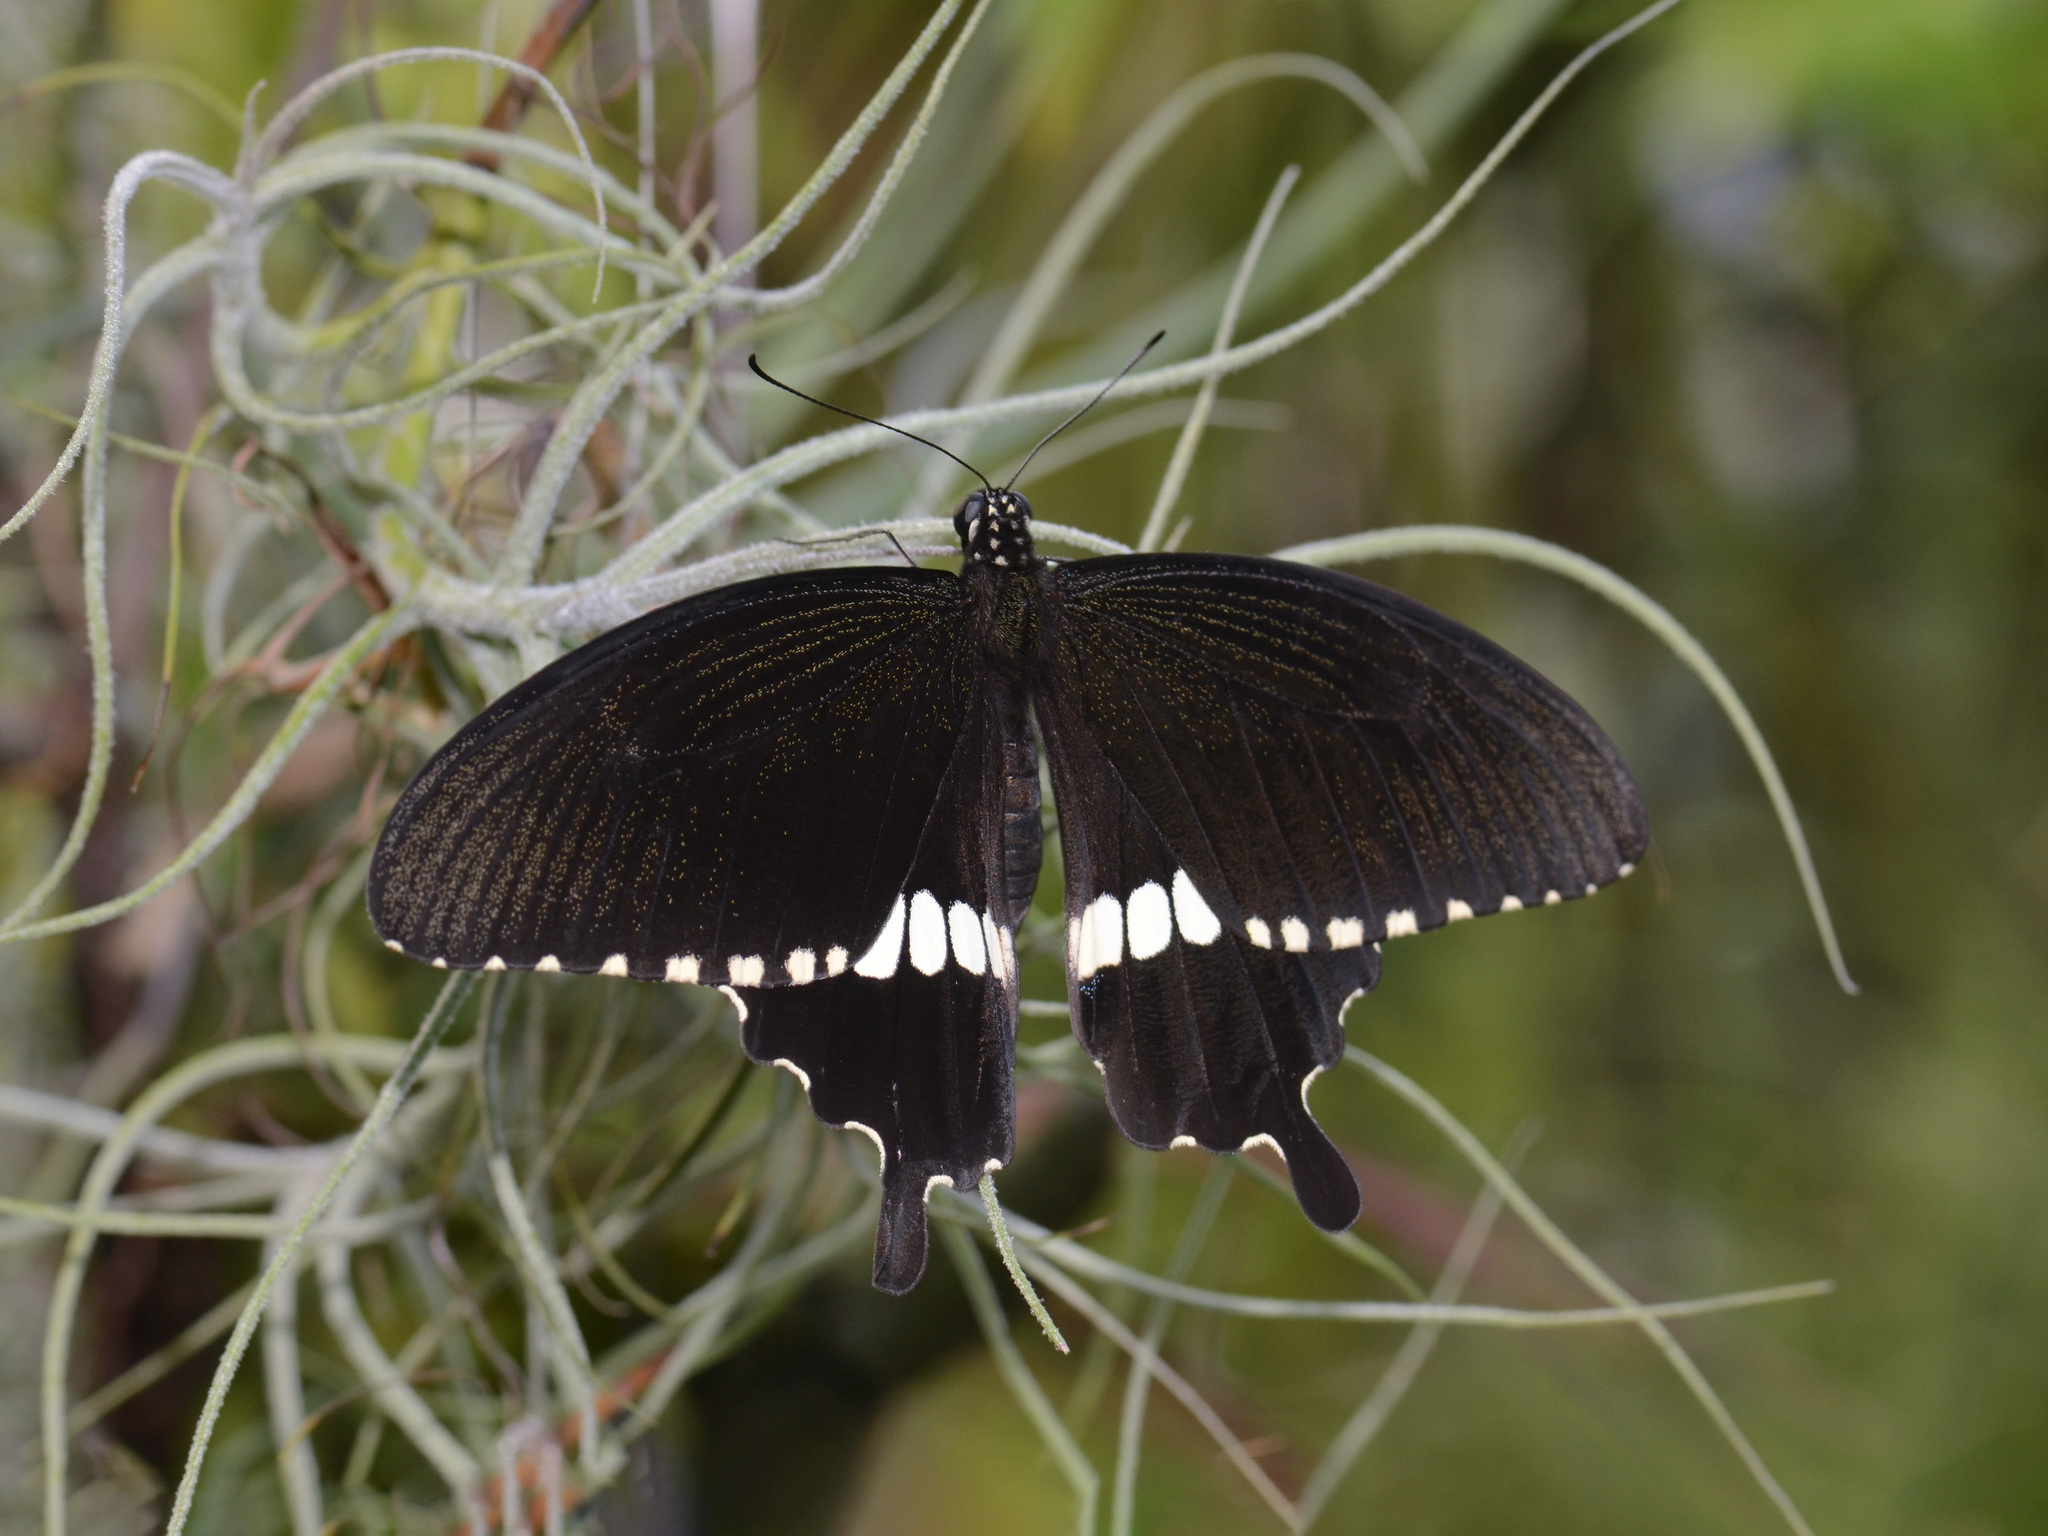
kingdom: Animalia
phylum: Arthropoda
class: Insecta
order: Lepidoptera
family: Papilionidae
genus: Papilio
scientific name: Papilio polytes
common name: Common mormon
